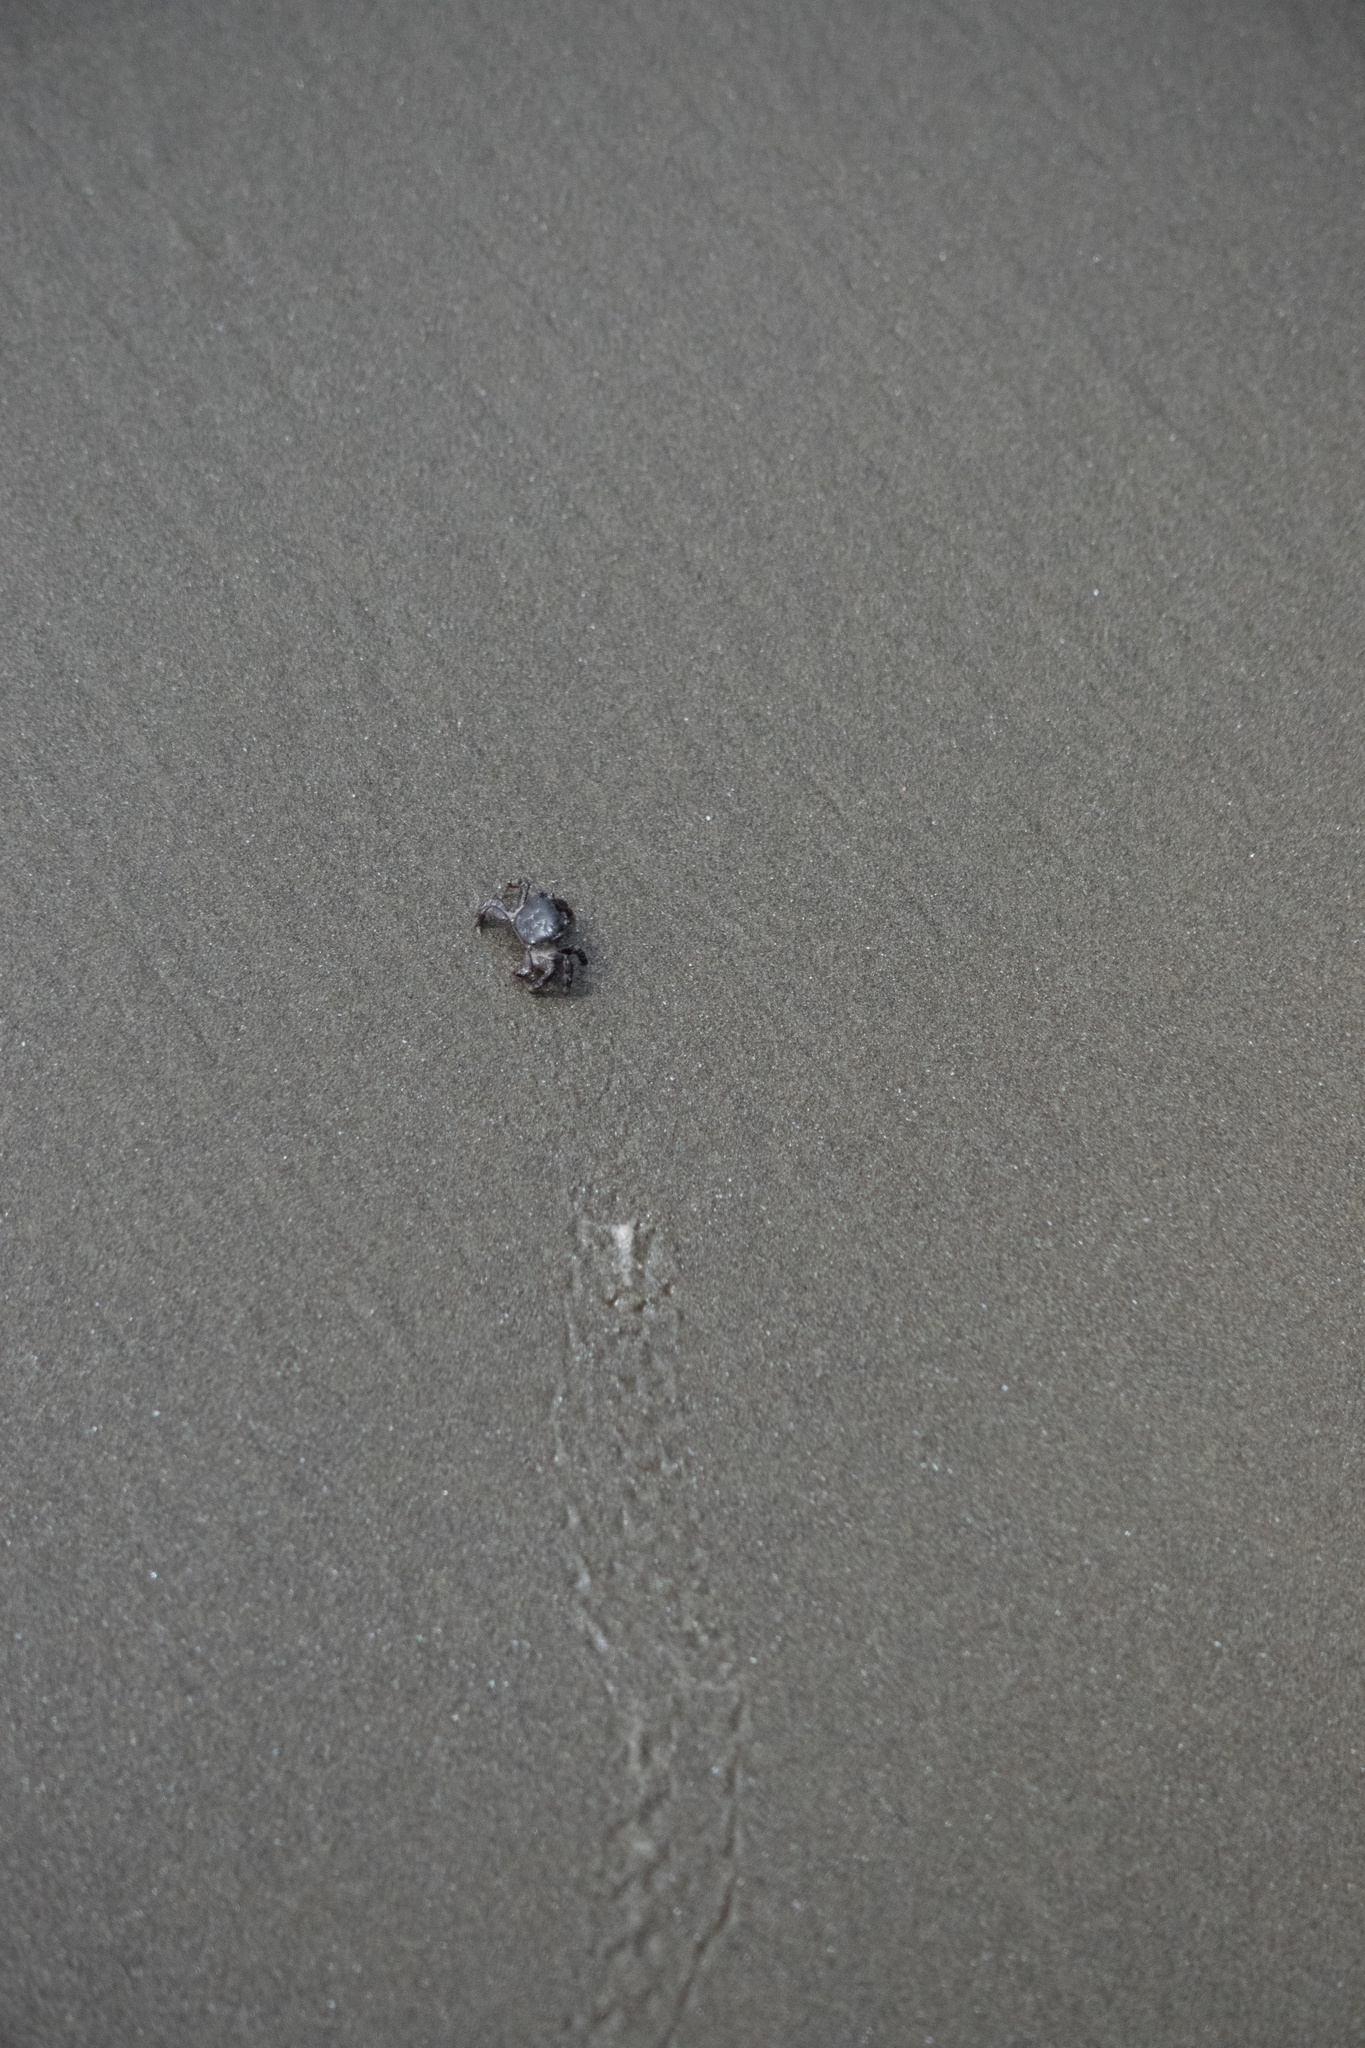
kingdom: Animalia
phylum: Arthropoda
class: Malacostraca
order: Decapoda
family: Varunidae
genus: Hemigrapsus
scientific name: Hemigrapsus nudus
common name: Purple shore crab
